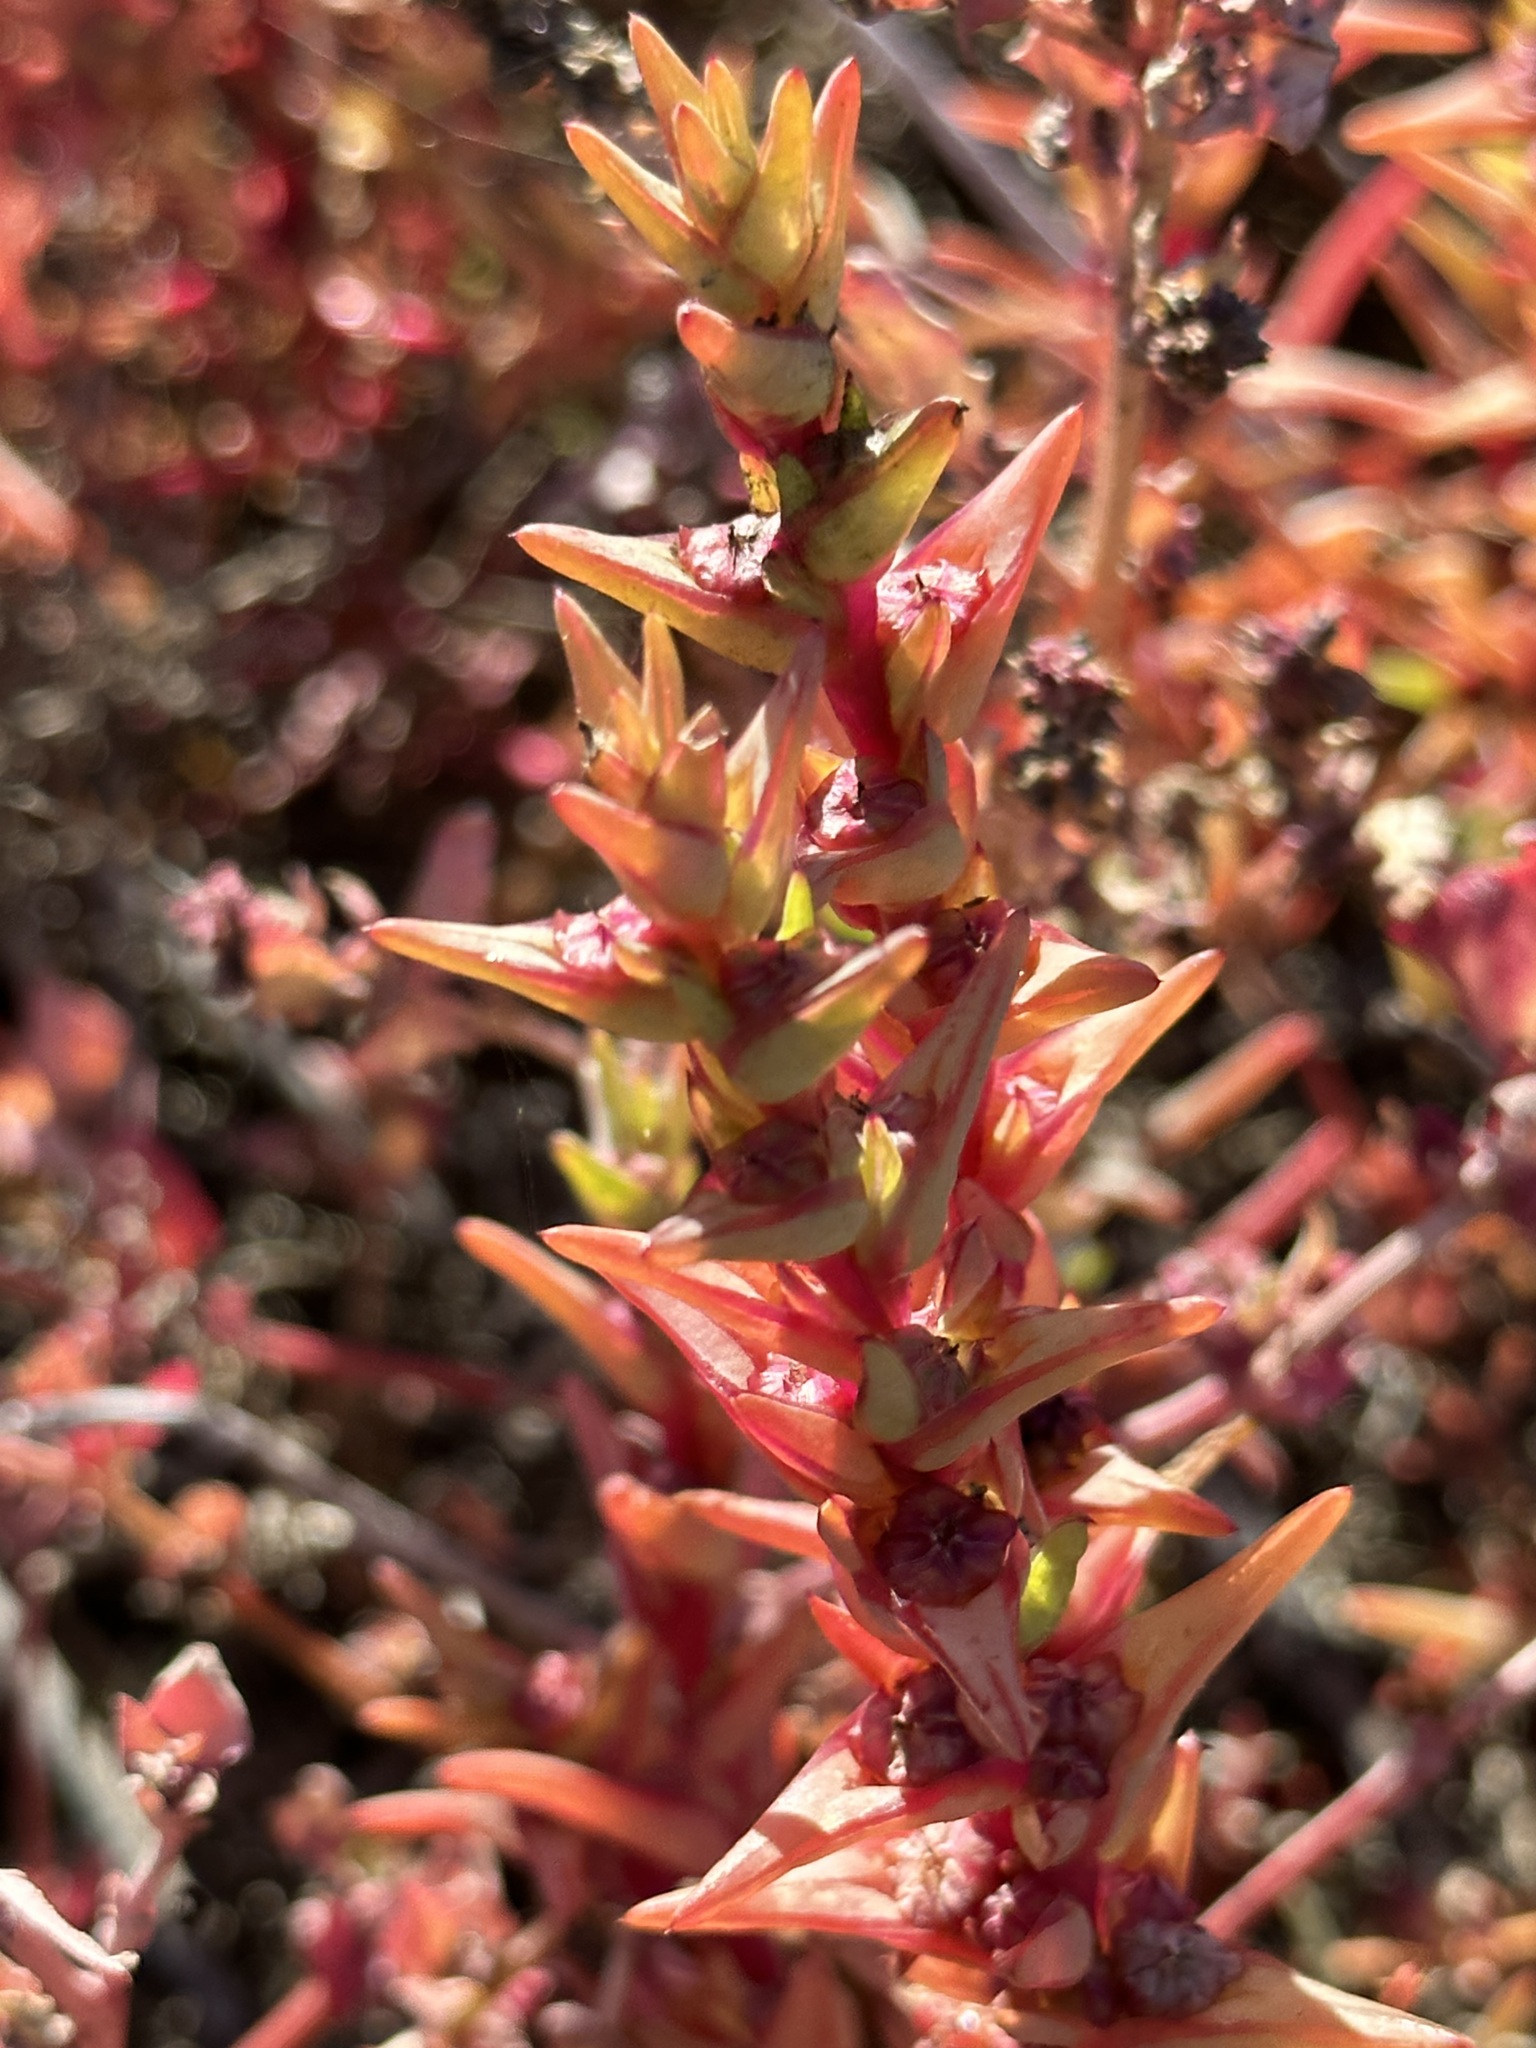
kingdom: Plantae
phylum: Tracheophyta
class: Magnoliopsida
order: Caryophyllales
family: Amaranthaceae
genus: Salsola
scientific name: Salsola soda
